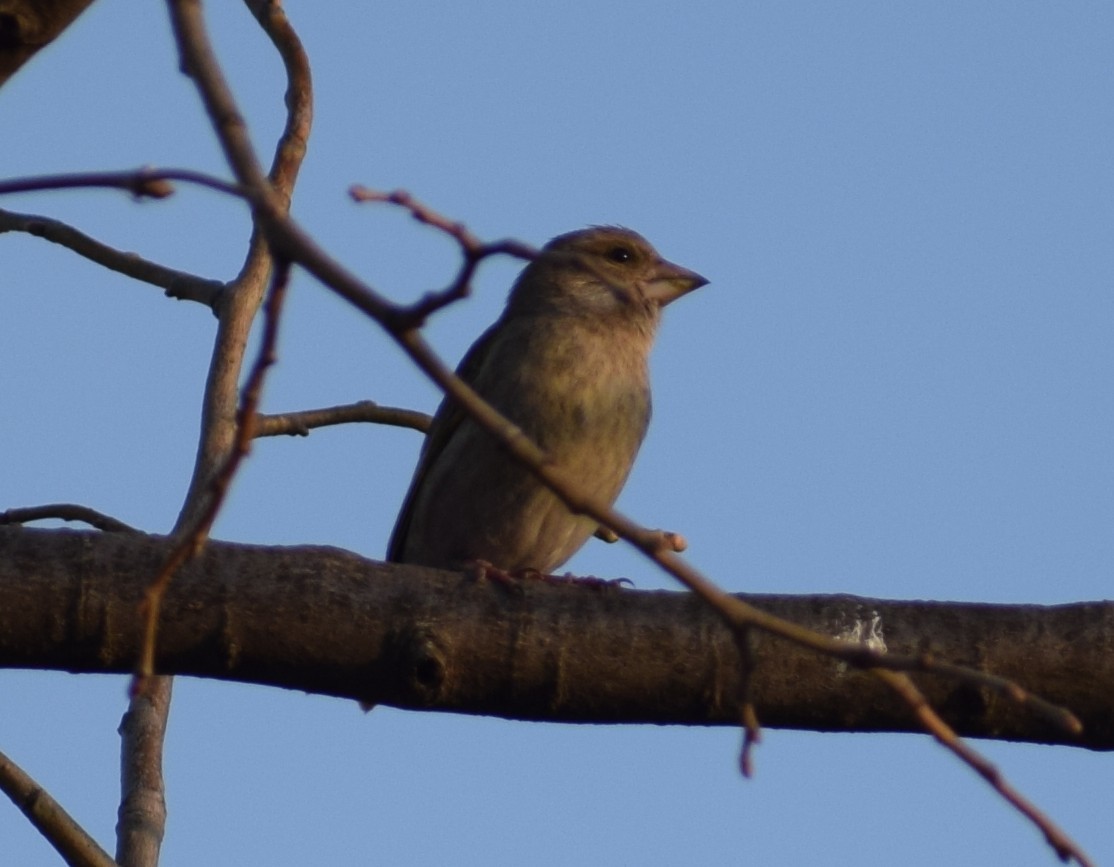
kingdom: Plantae
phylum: Tracheophyta
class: Liliopsida
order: Poales
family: Poaceae
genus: Chloris
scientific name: Chloris chloris
